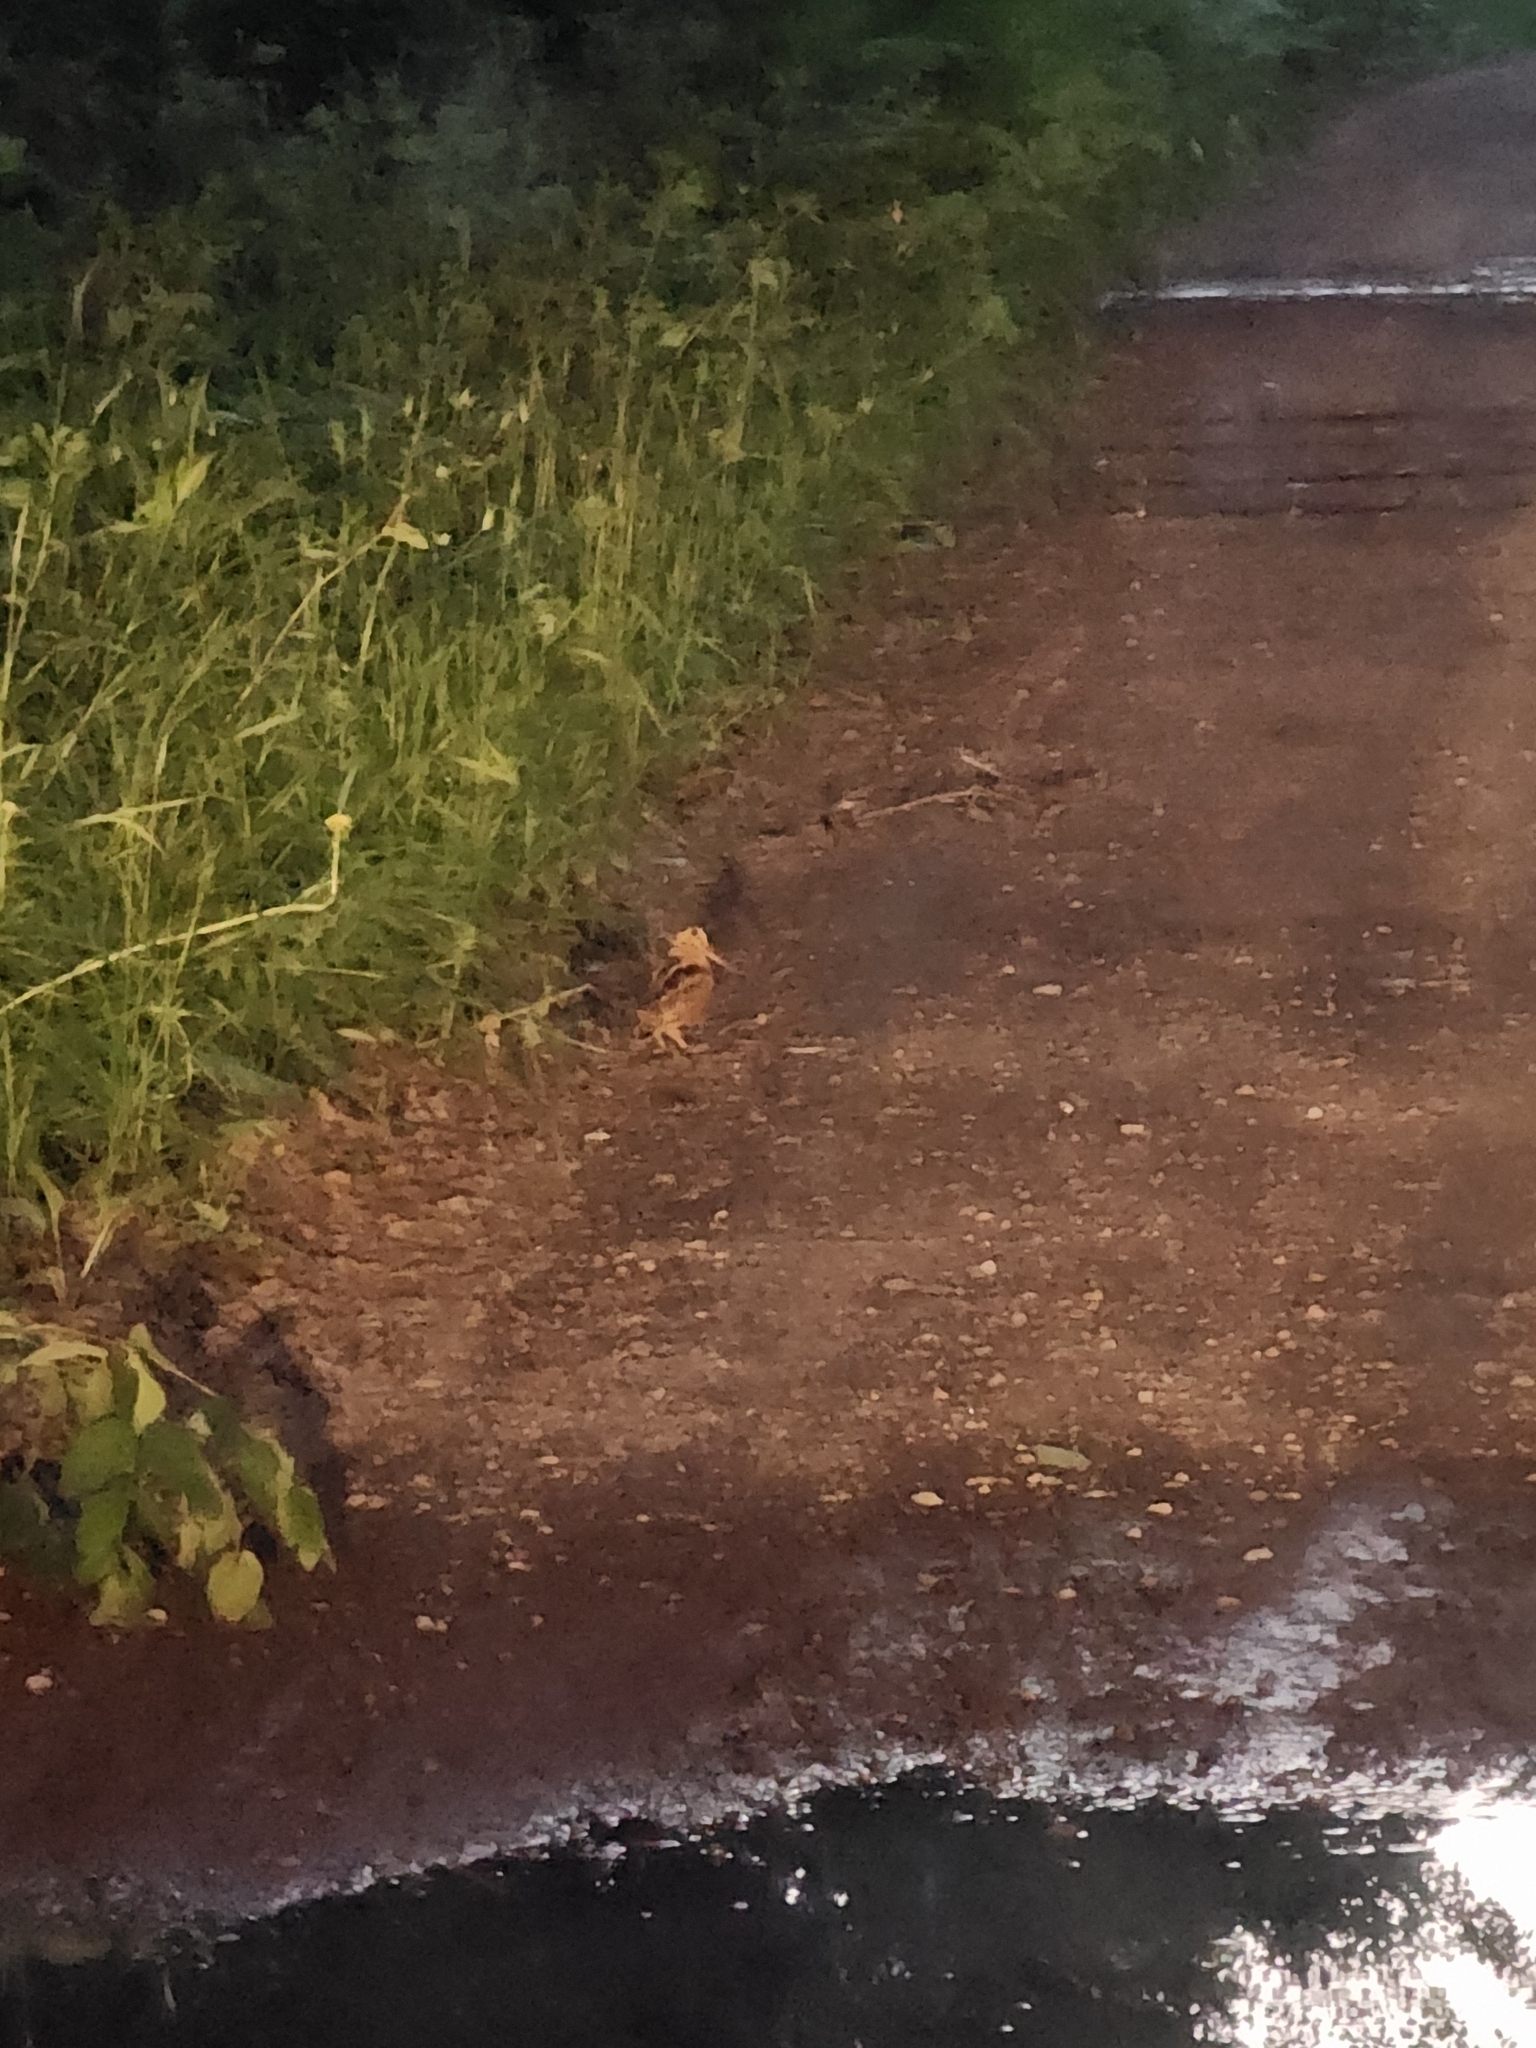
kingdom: Animalia
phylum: Chordata
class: Aves
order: Charadriiformes
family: Scolopacidae
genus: Scolopax
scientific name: Scolopax minor
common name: American woodcock
